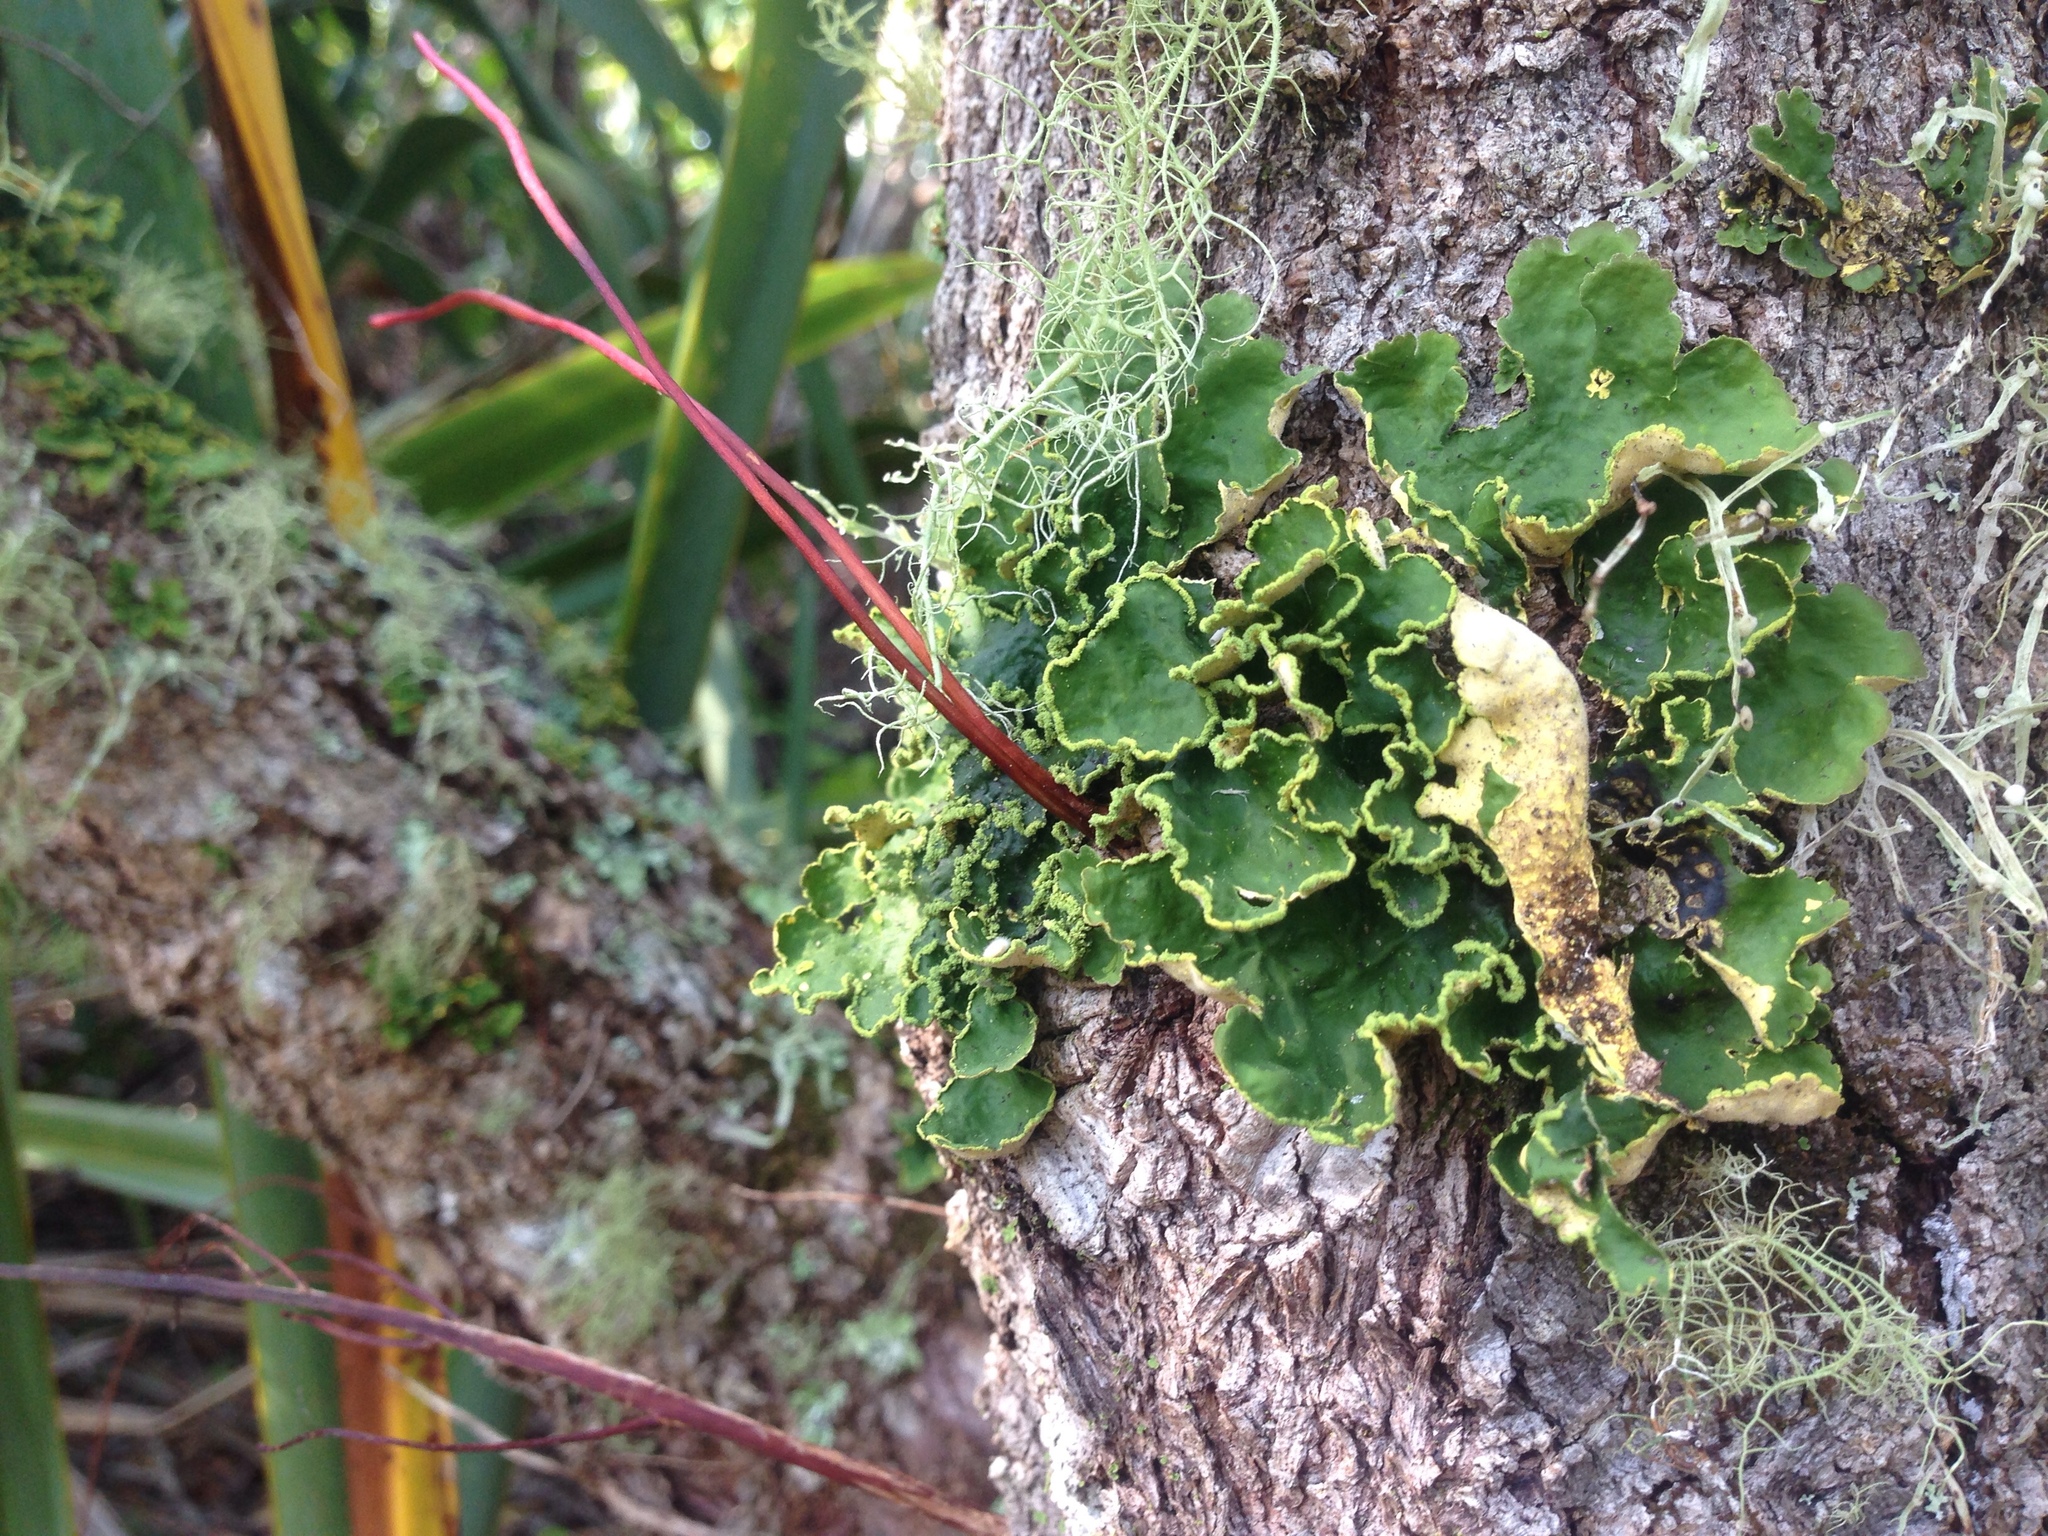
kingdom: Fungi
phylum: Ascomycota
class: Lecanoromycetes
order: Peltigerales
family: Lobariaceae
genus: Pseudocyphellaria
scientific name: Pseudocyphellaria aurata
